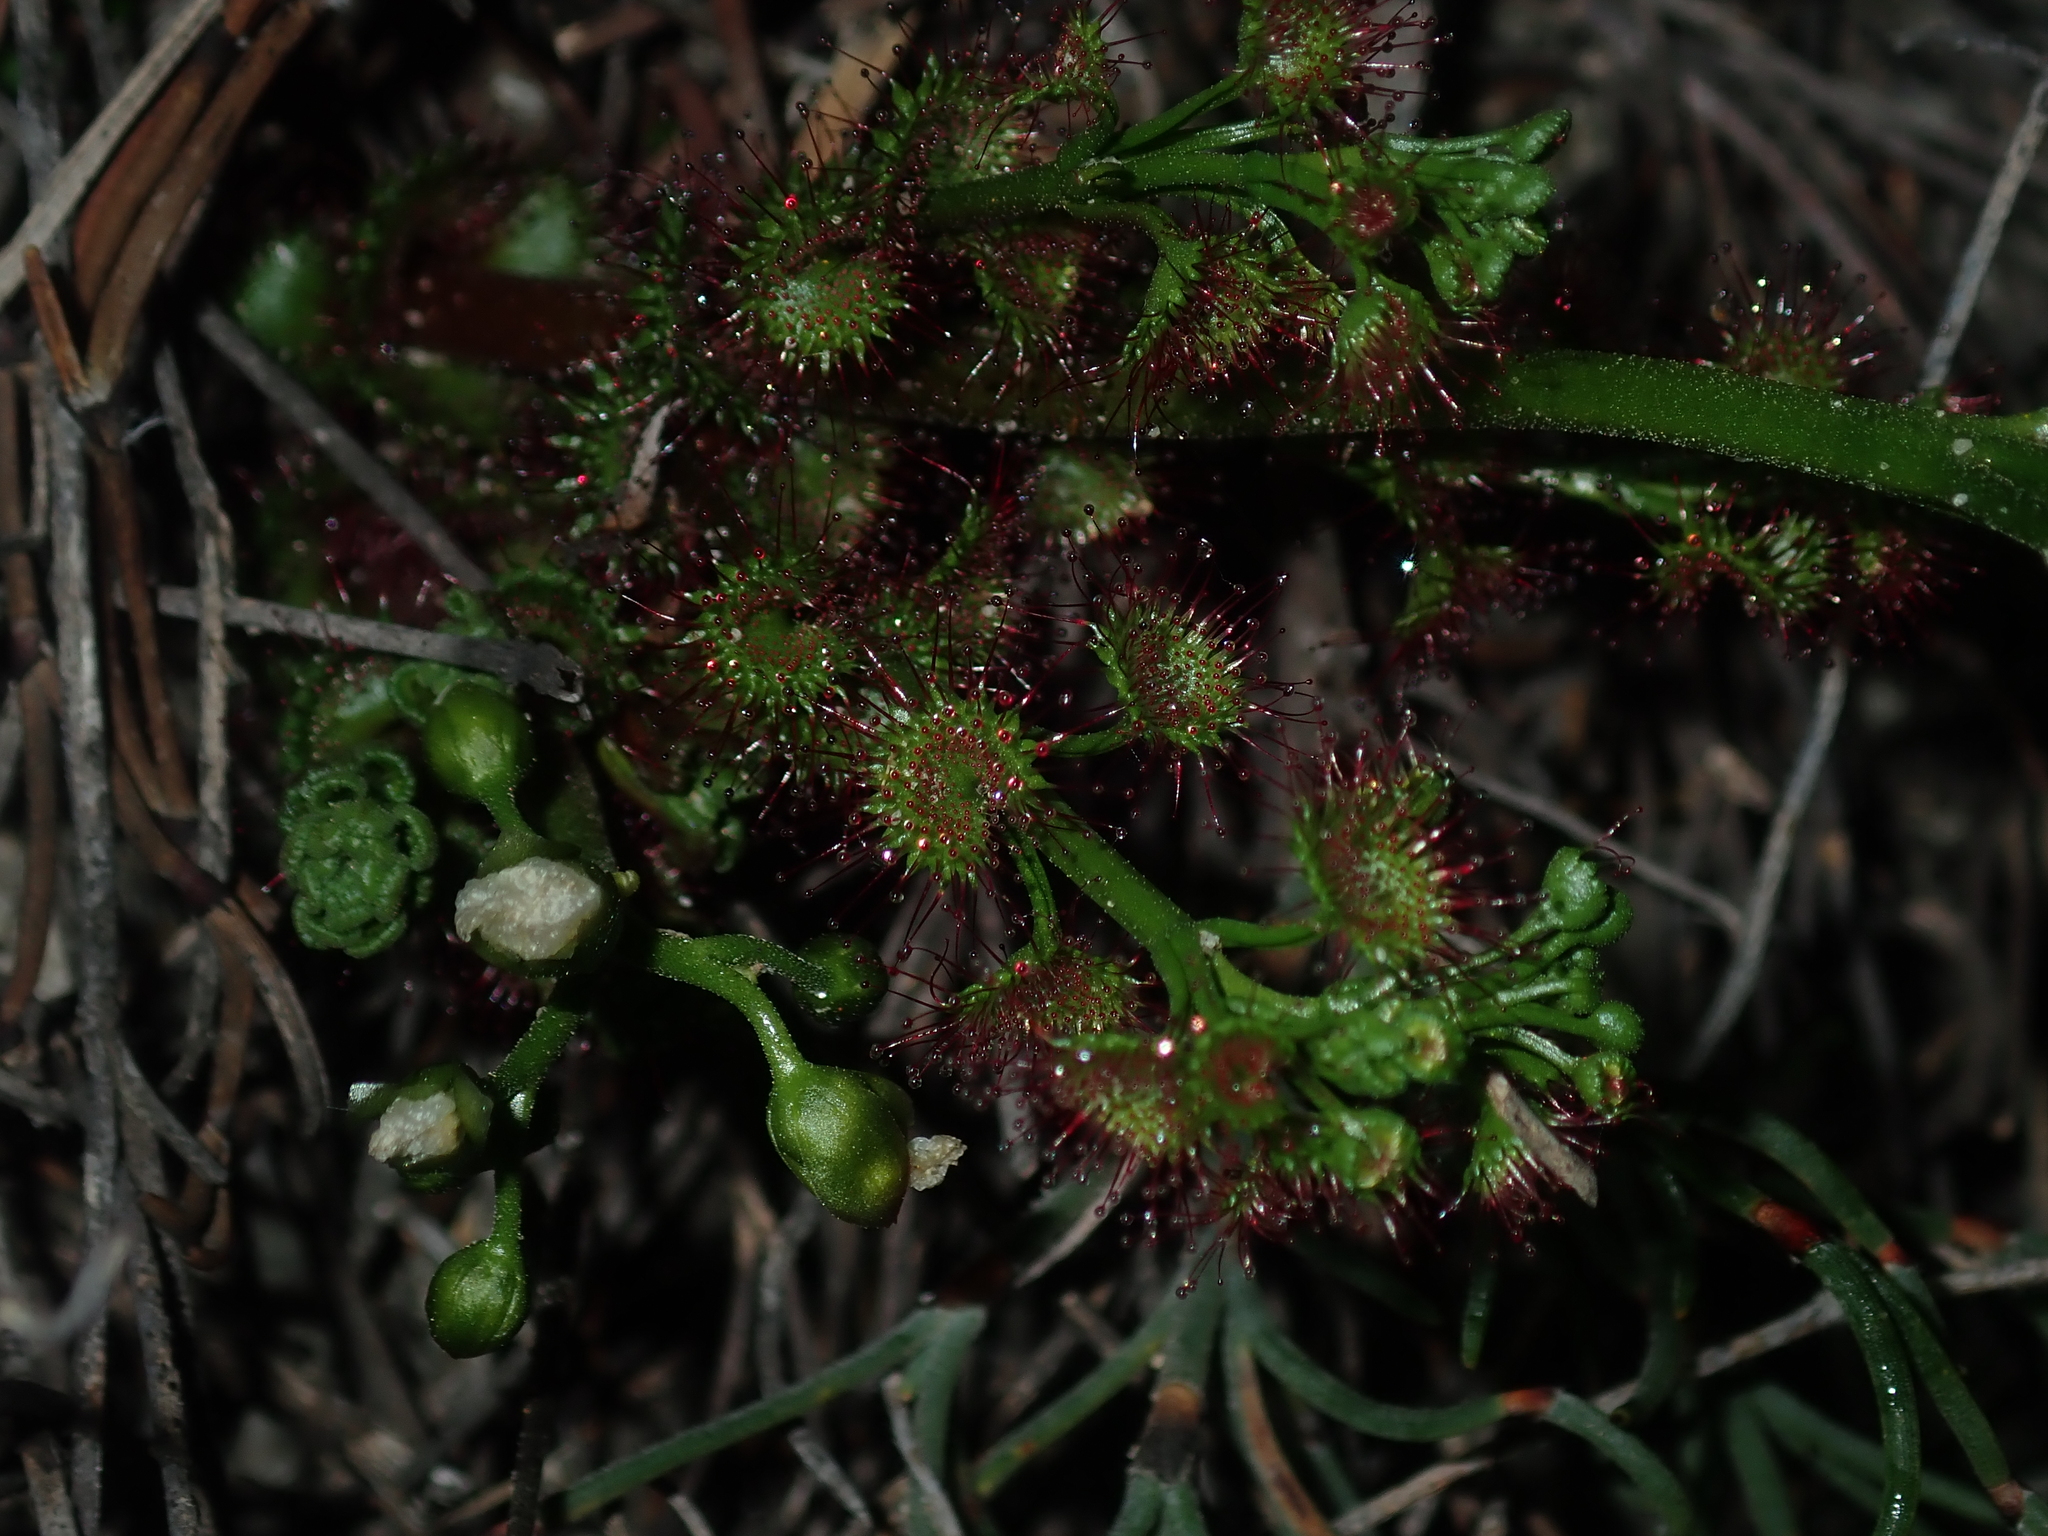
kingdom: Plantae
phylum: Tracheophyta
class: Magnoliopsida
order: Caryophyllales
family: Droseraceae
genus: Drosera
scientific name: Drosera stolonifera
